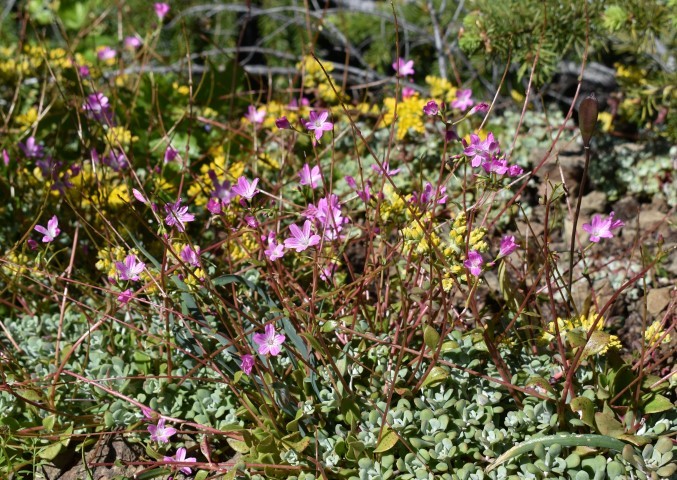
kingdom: Plantae
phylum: Tracheophyta
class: Magnoliopsida
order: Caryophyllales
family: Montiaceae
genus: Montia
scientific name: Montia parvifolia
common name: Small-leaved blinks
